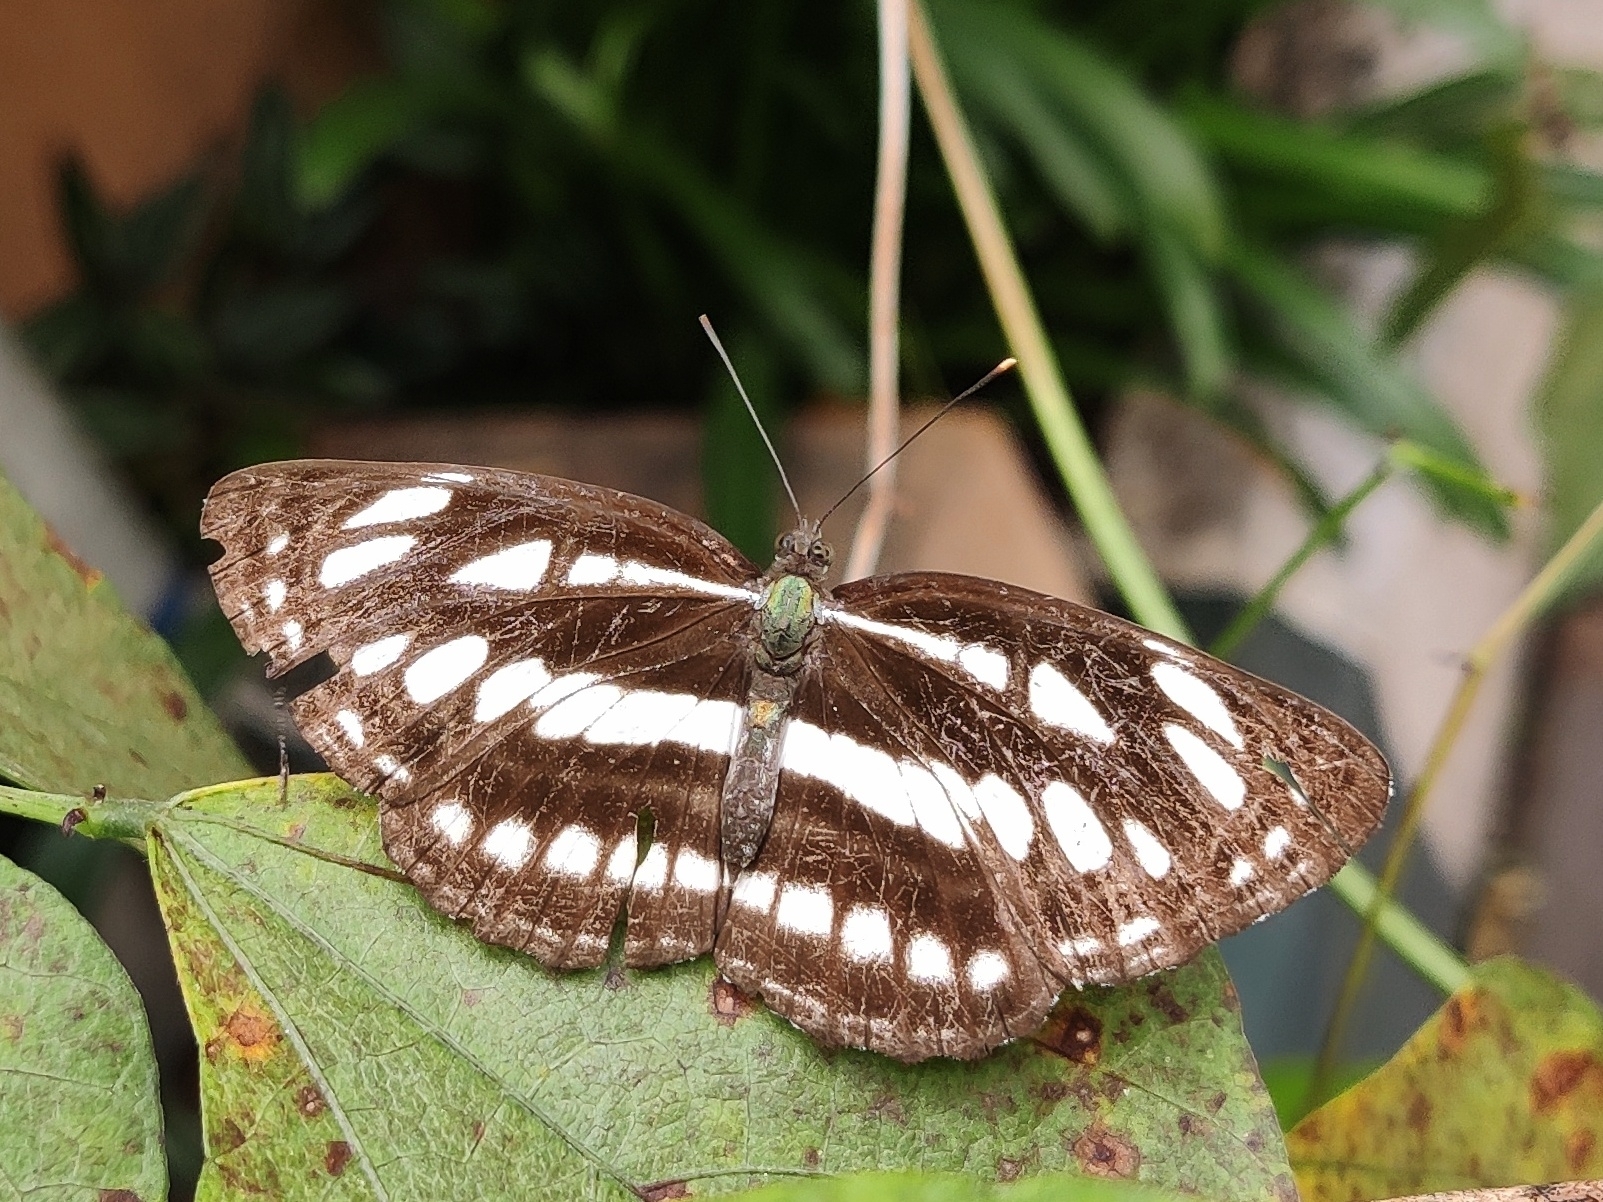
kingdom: Animalia
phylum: Arthropoda
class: Insecta
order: Lepidoptera
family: Nymphalidae
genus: Neptis
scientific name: Neptis hylas
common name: Common sailer
